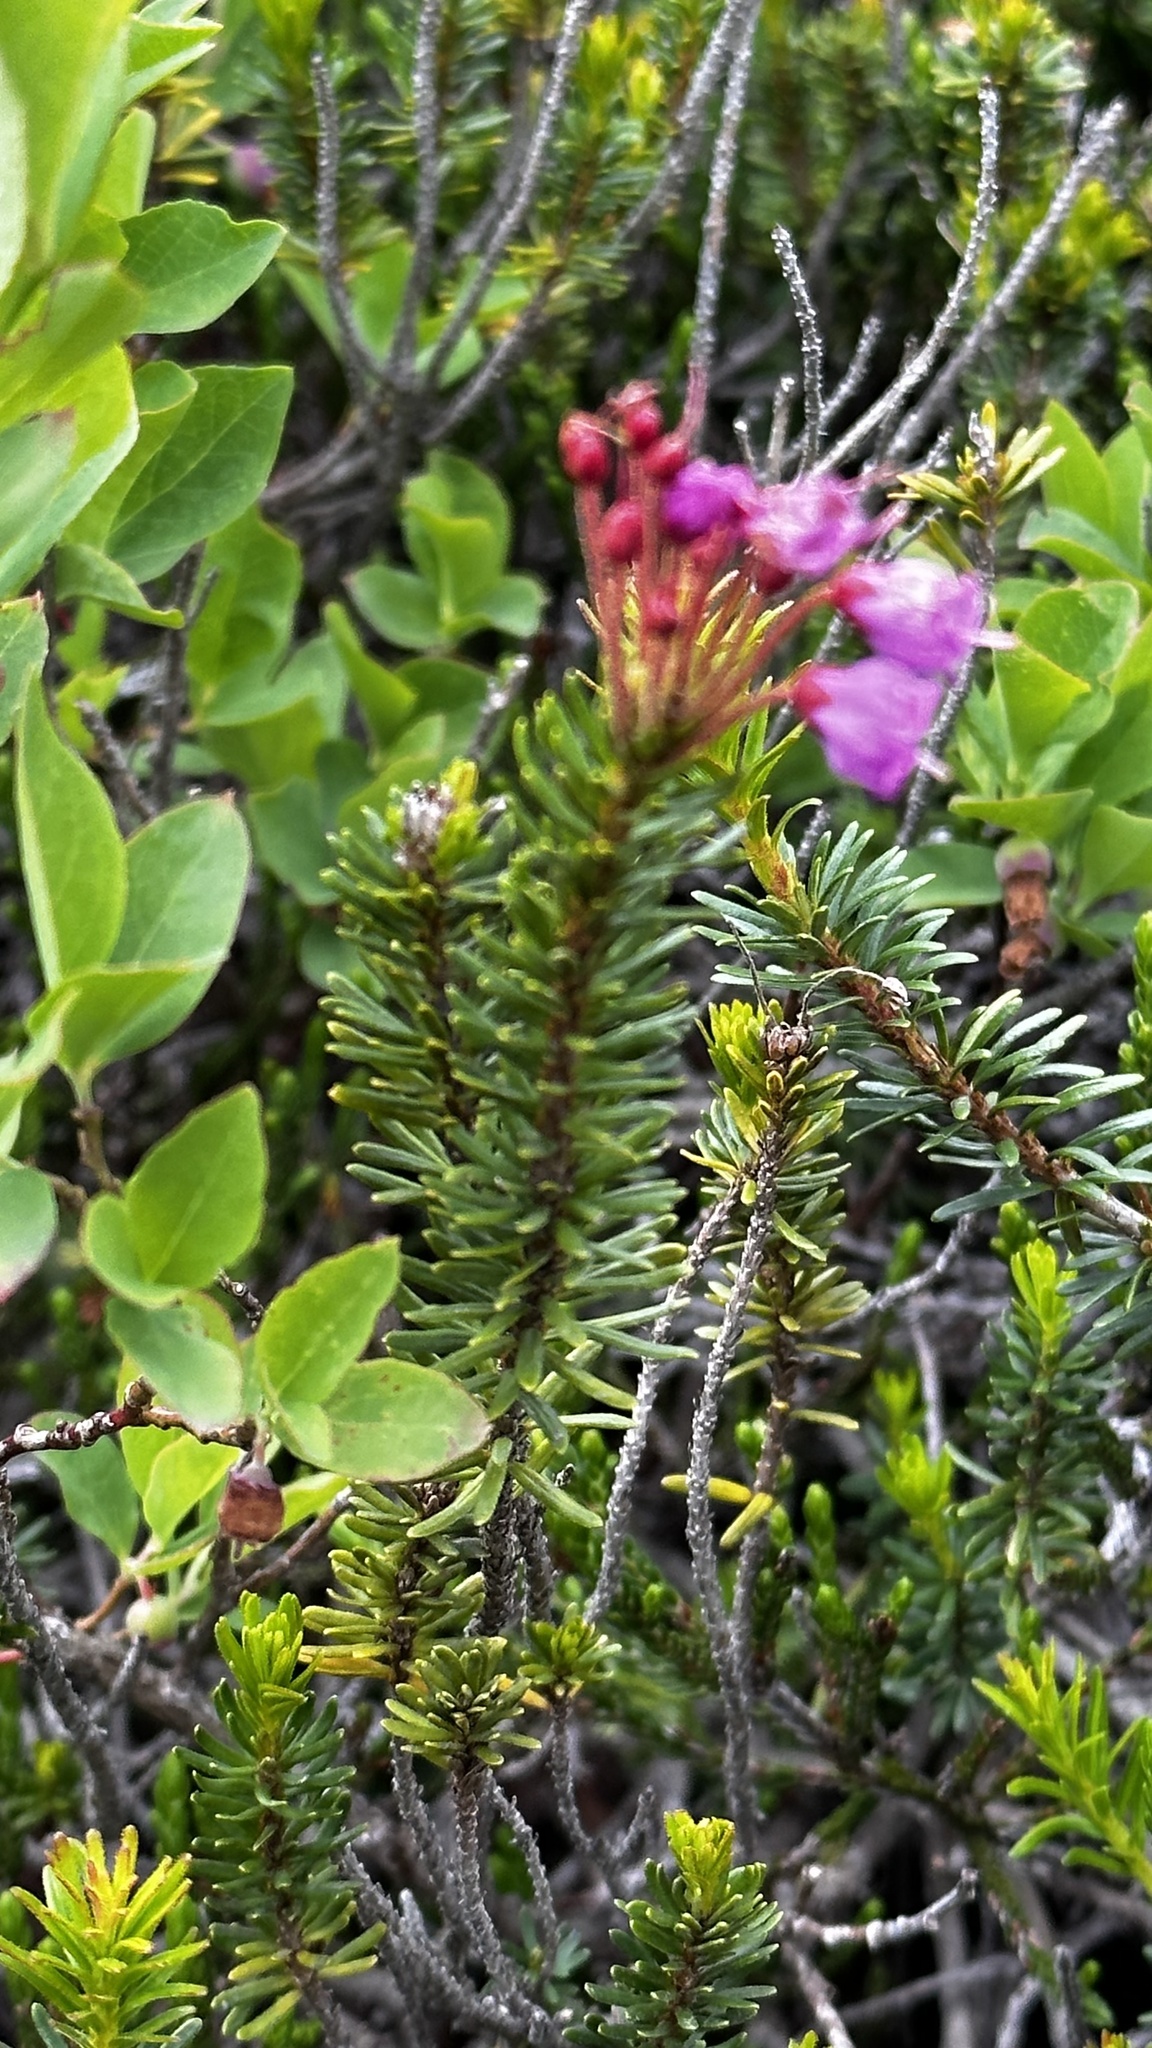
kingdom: Plantae
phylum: Tracheophyta
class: Magnoliopsida
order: Ericales
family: Ericaceae
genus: Phyllodoce
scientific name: Phyllodoce empetriformis
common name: Pink mountain heather
